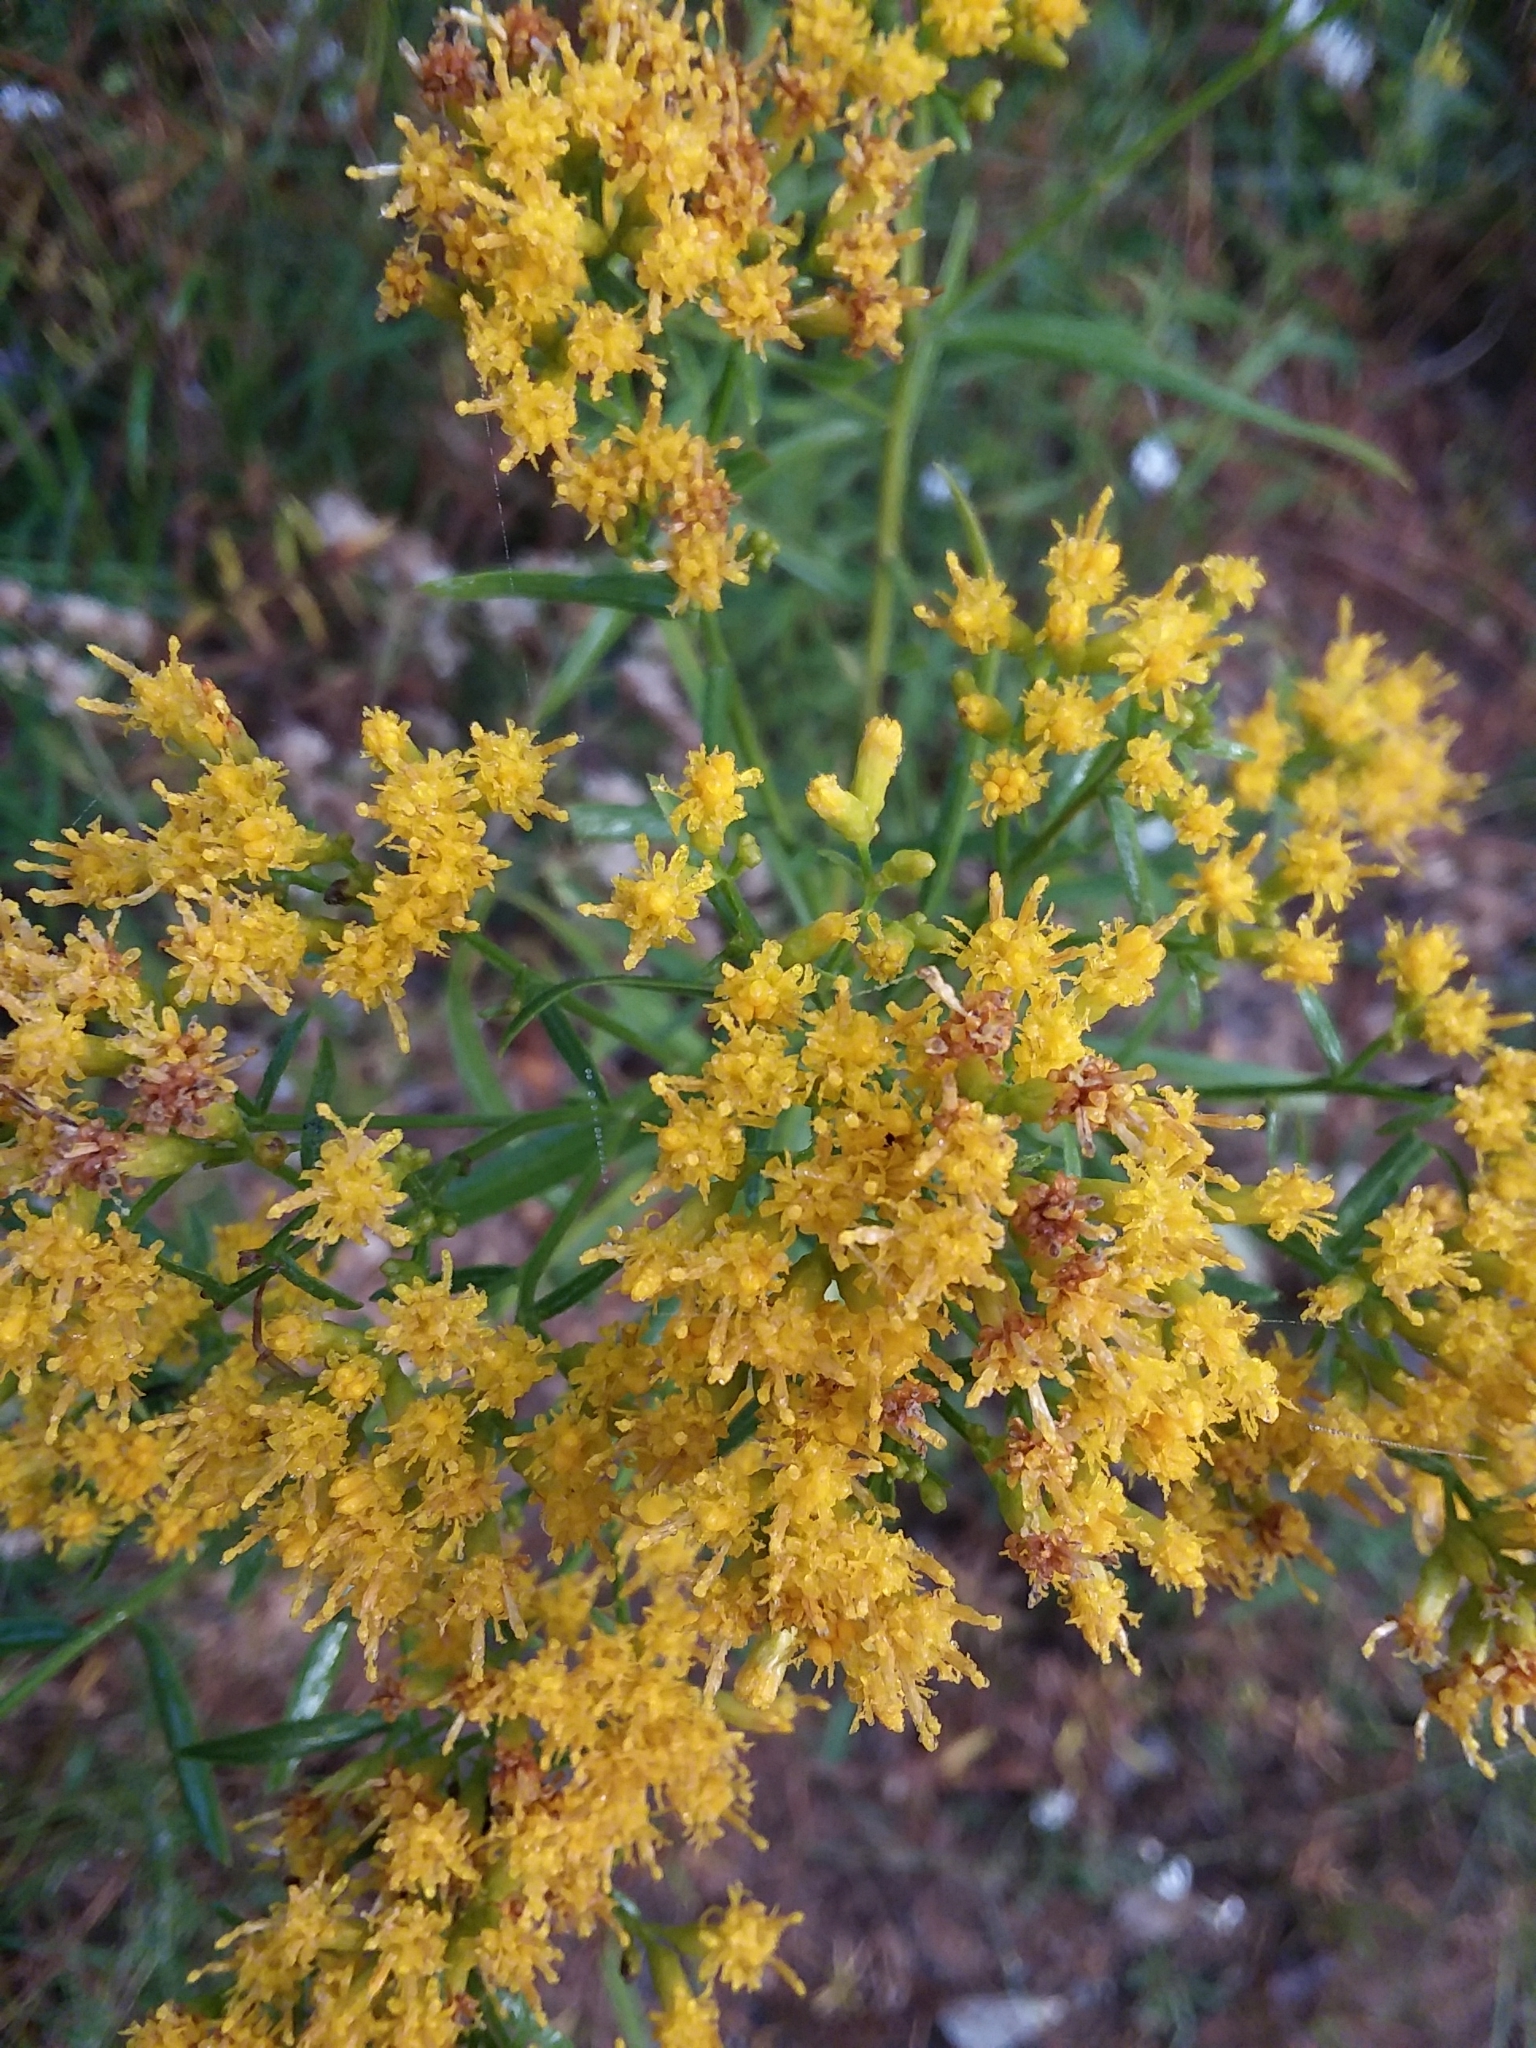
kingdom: Plantae
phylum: Tracheophyta
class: Magnoliopsida
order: Asterales
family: Asteraceae
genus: Euthamia
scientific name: Euthamia scabra
